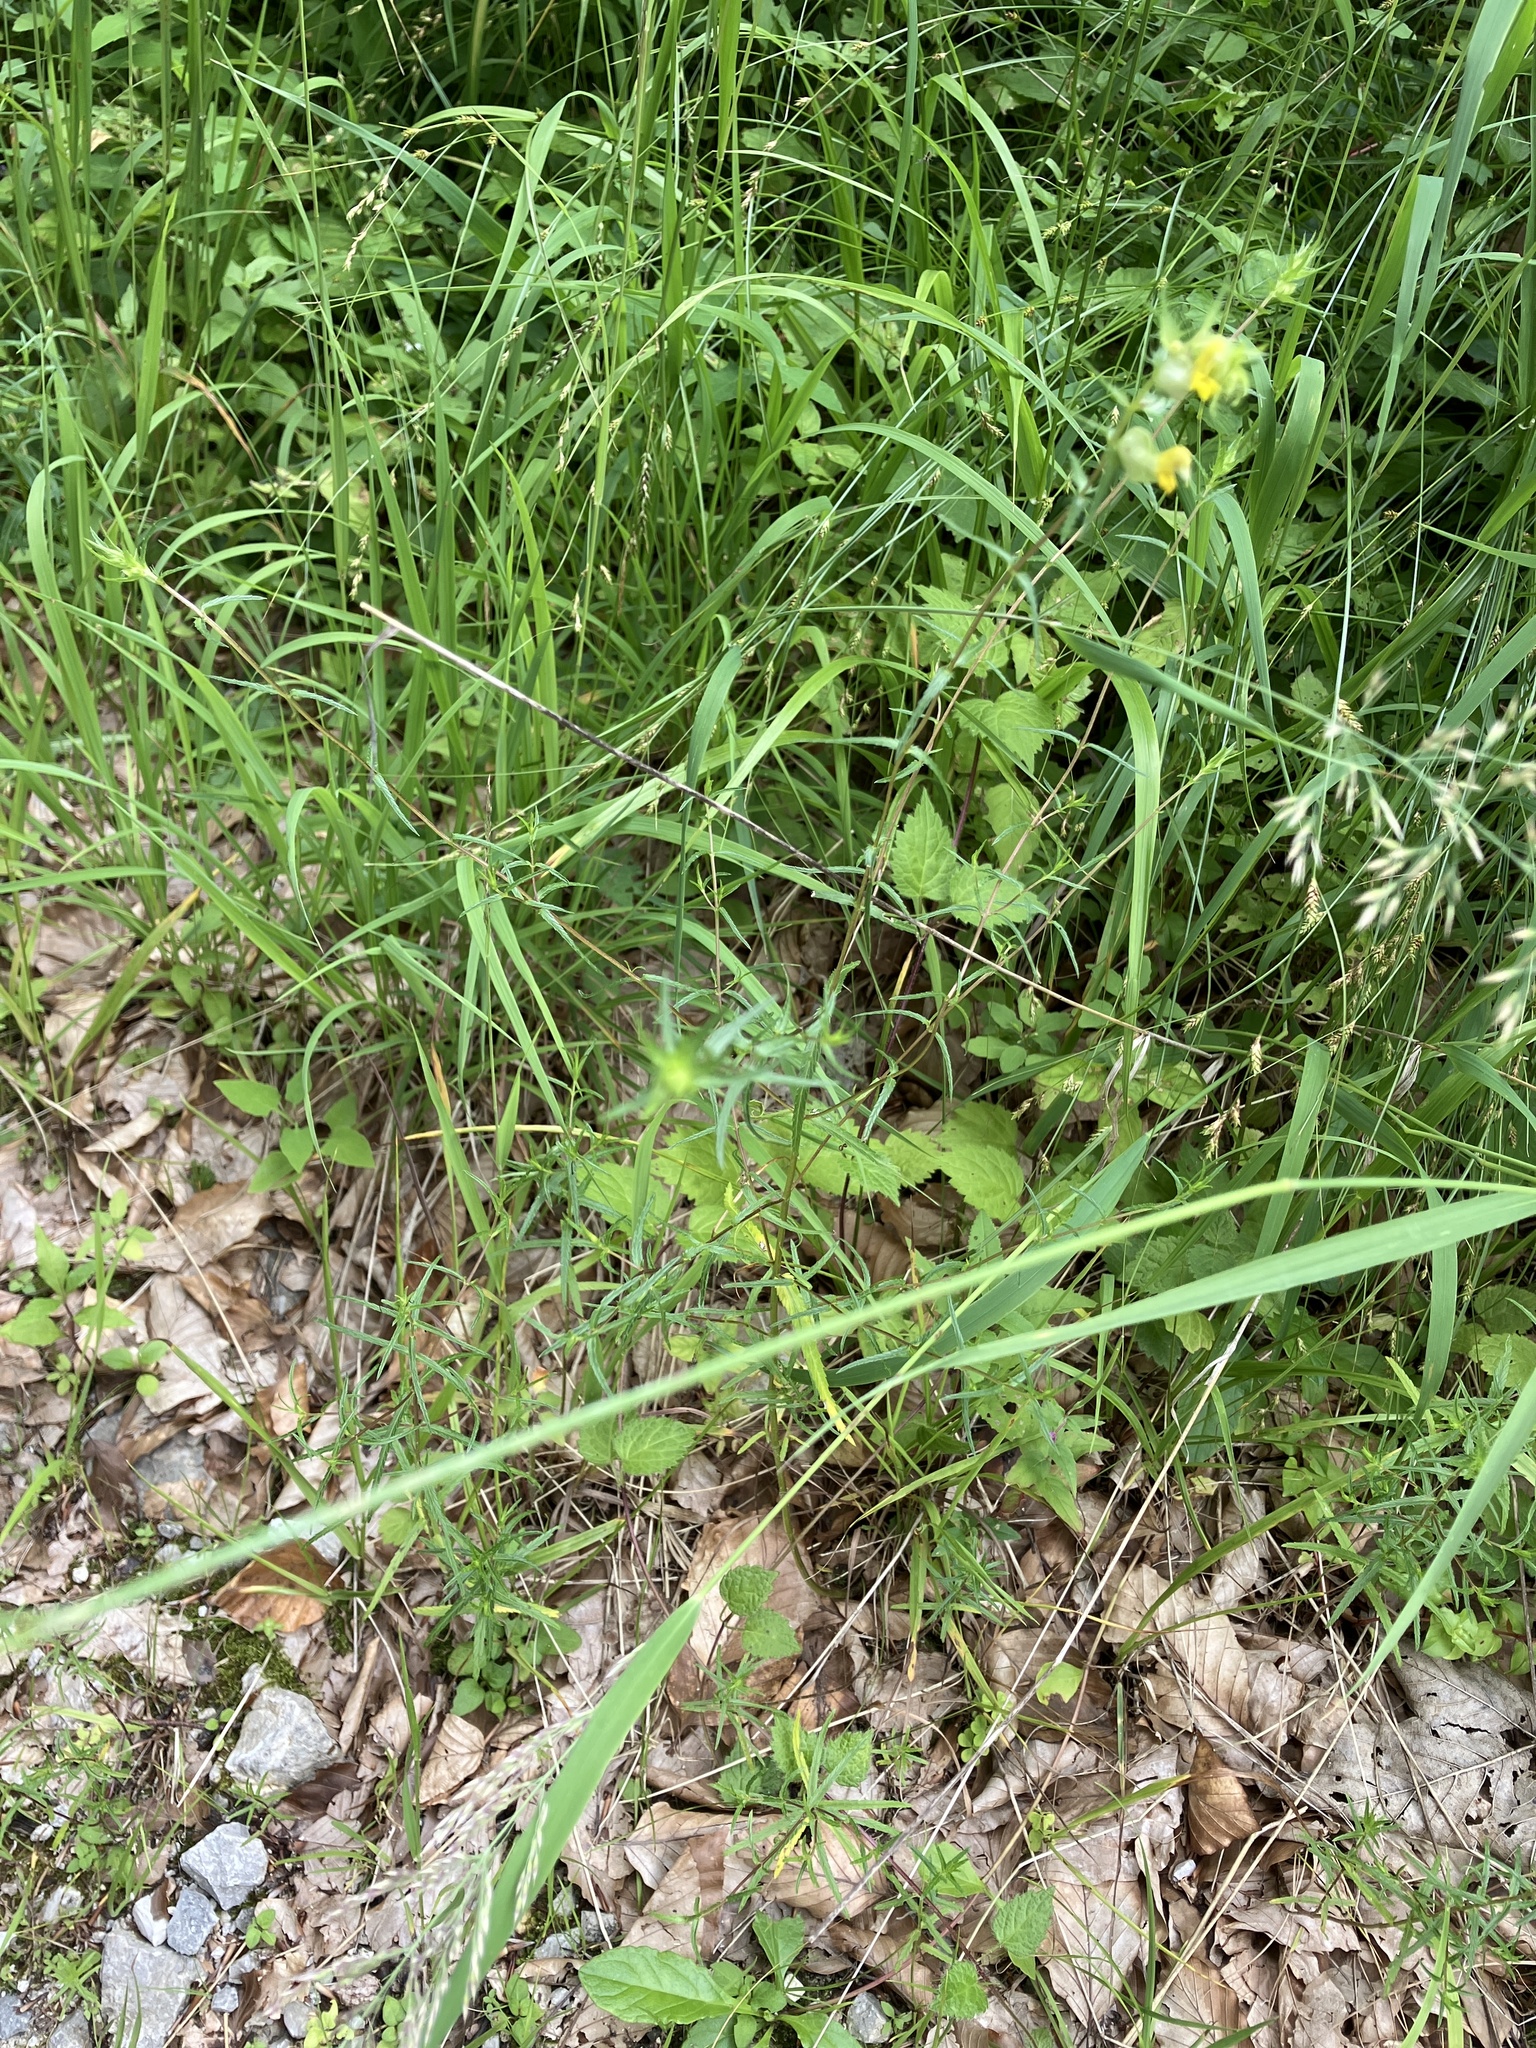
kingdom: Plantae
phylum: Tracheophyta
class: Magnoliopsida
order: Lamiales
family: Orobanchaceae
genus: Rhinanthus
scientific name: Rhinanthus glacialis
